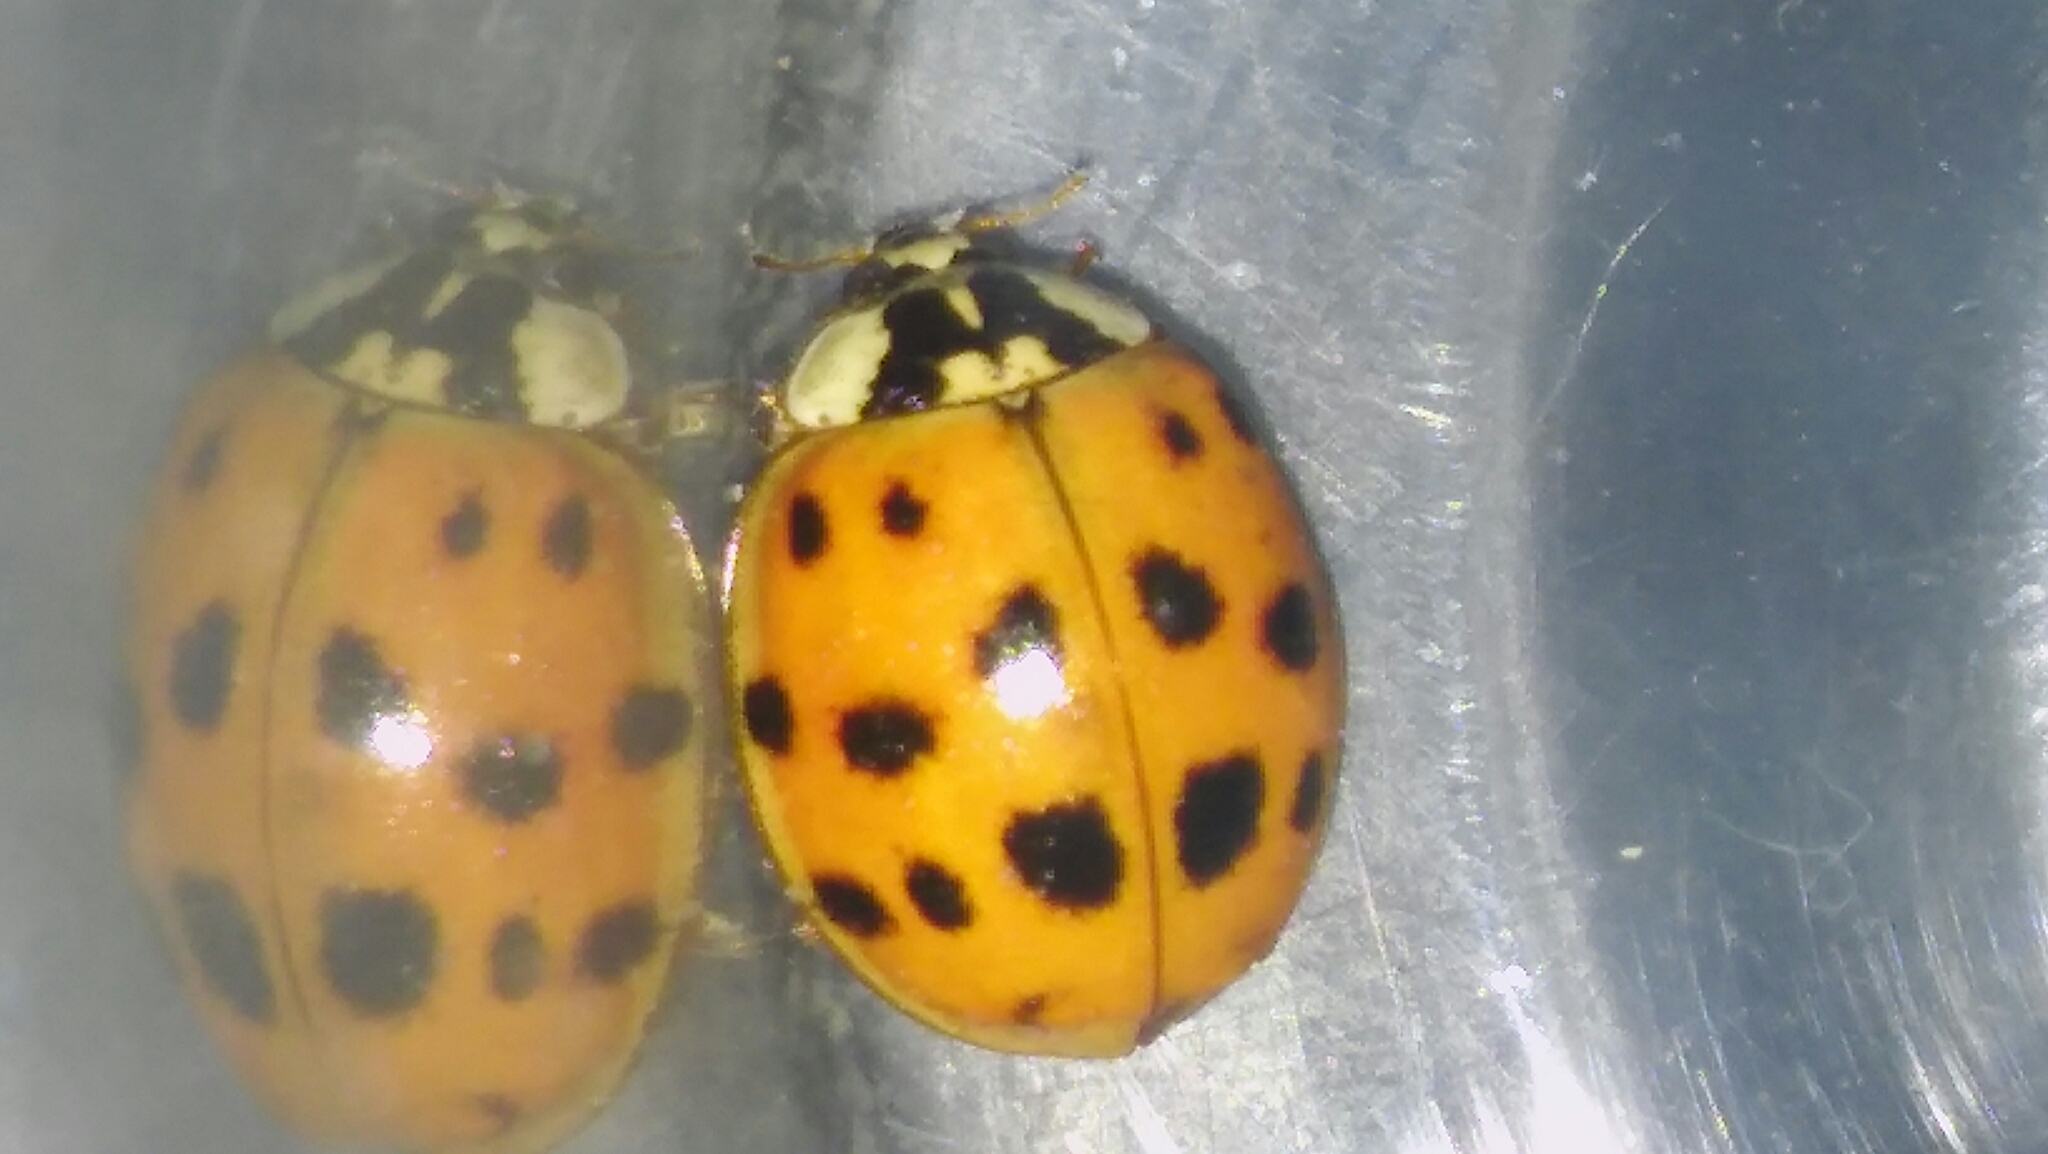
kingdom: Animalia
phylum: Arthropoda
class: Insecta
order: Coleoptera
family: Coccinellidae
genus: Harmonia
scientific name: Harmonia axyridis
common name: Harlequin ladybird
